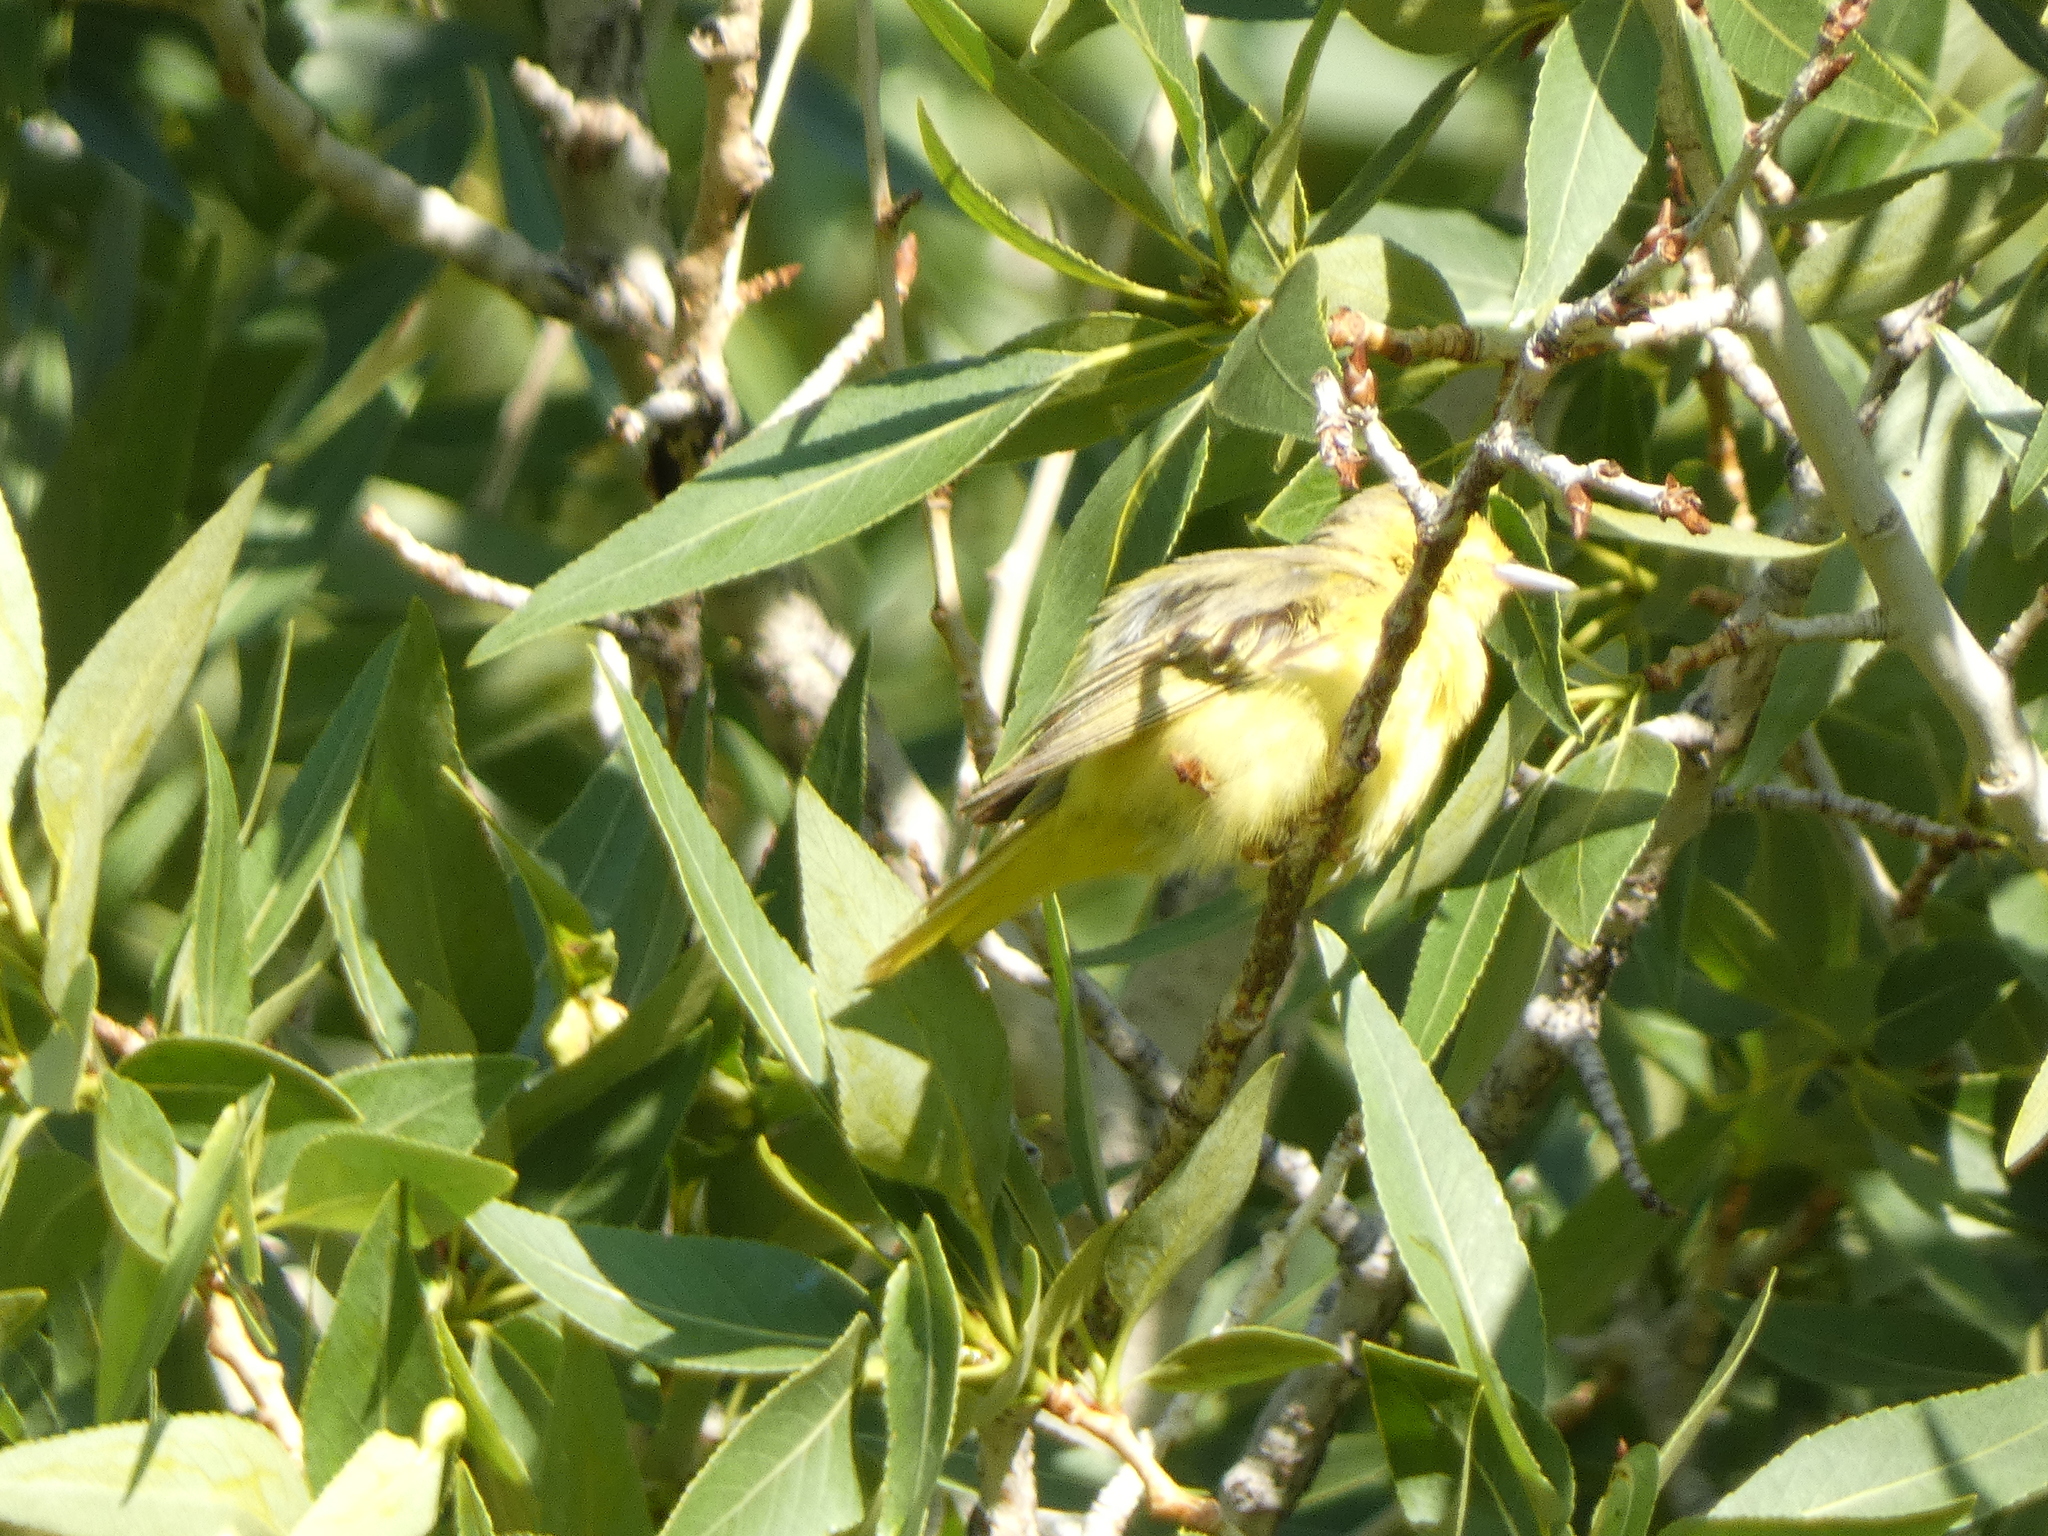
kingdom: Animalia
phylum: Chordata
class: Aves
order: Passeriformes
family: Parulidae
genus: Setophaga
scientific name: Setophaga petechia
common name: Yellow warbler
